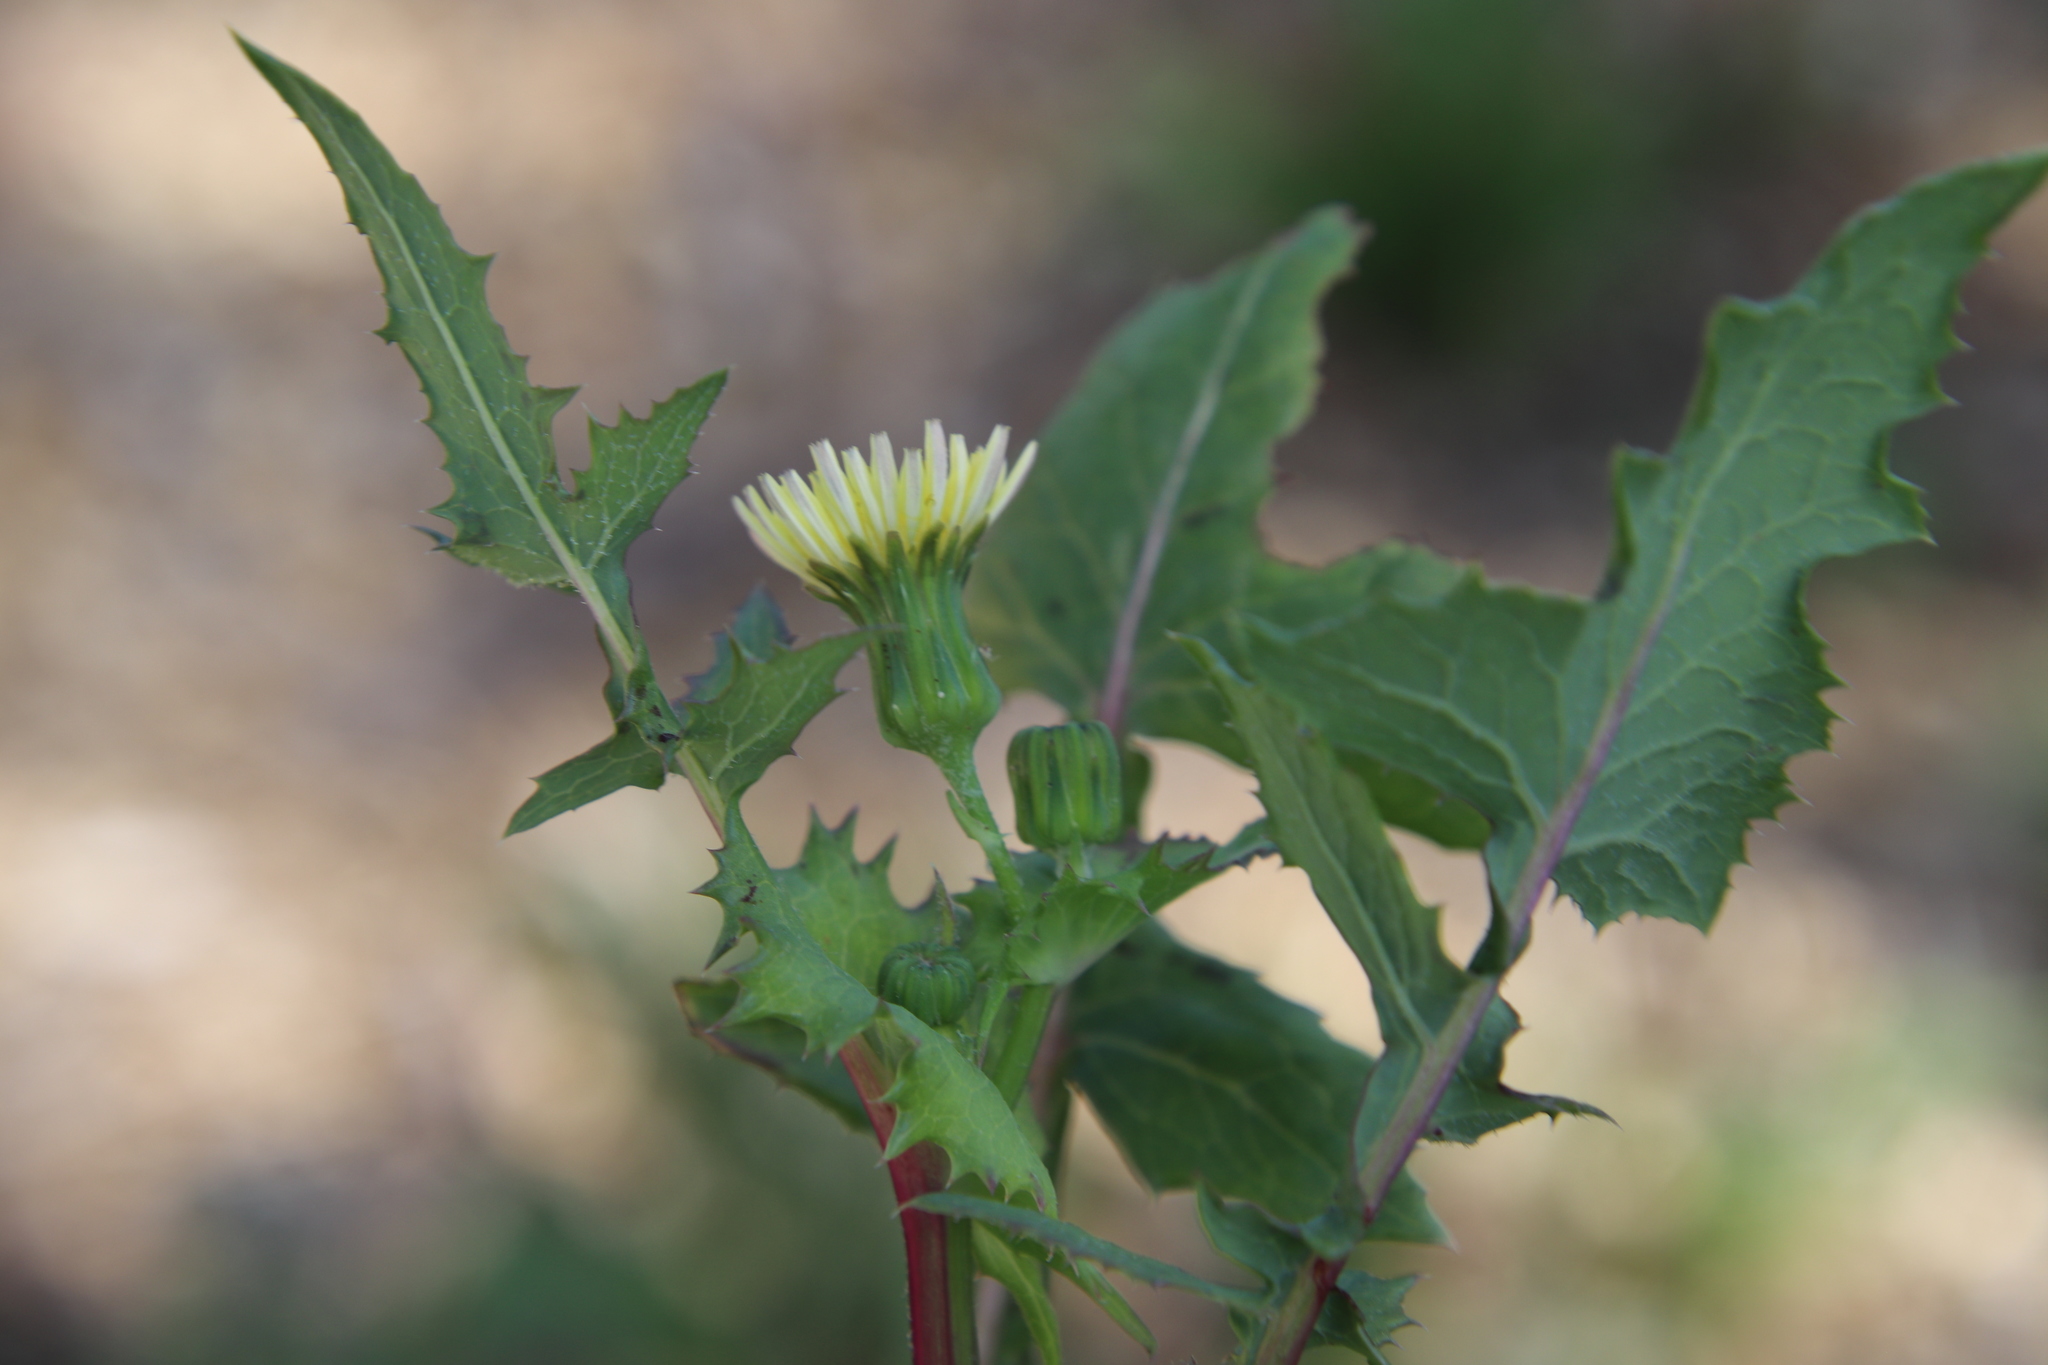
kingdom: Plantae
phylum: Tracheophyta
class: Magnoliopsida
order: Asterales
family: Asteraceae
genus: Sonchus
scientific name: Sonchus oleraceus
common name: Common sowthistle
